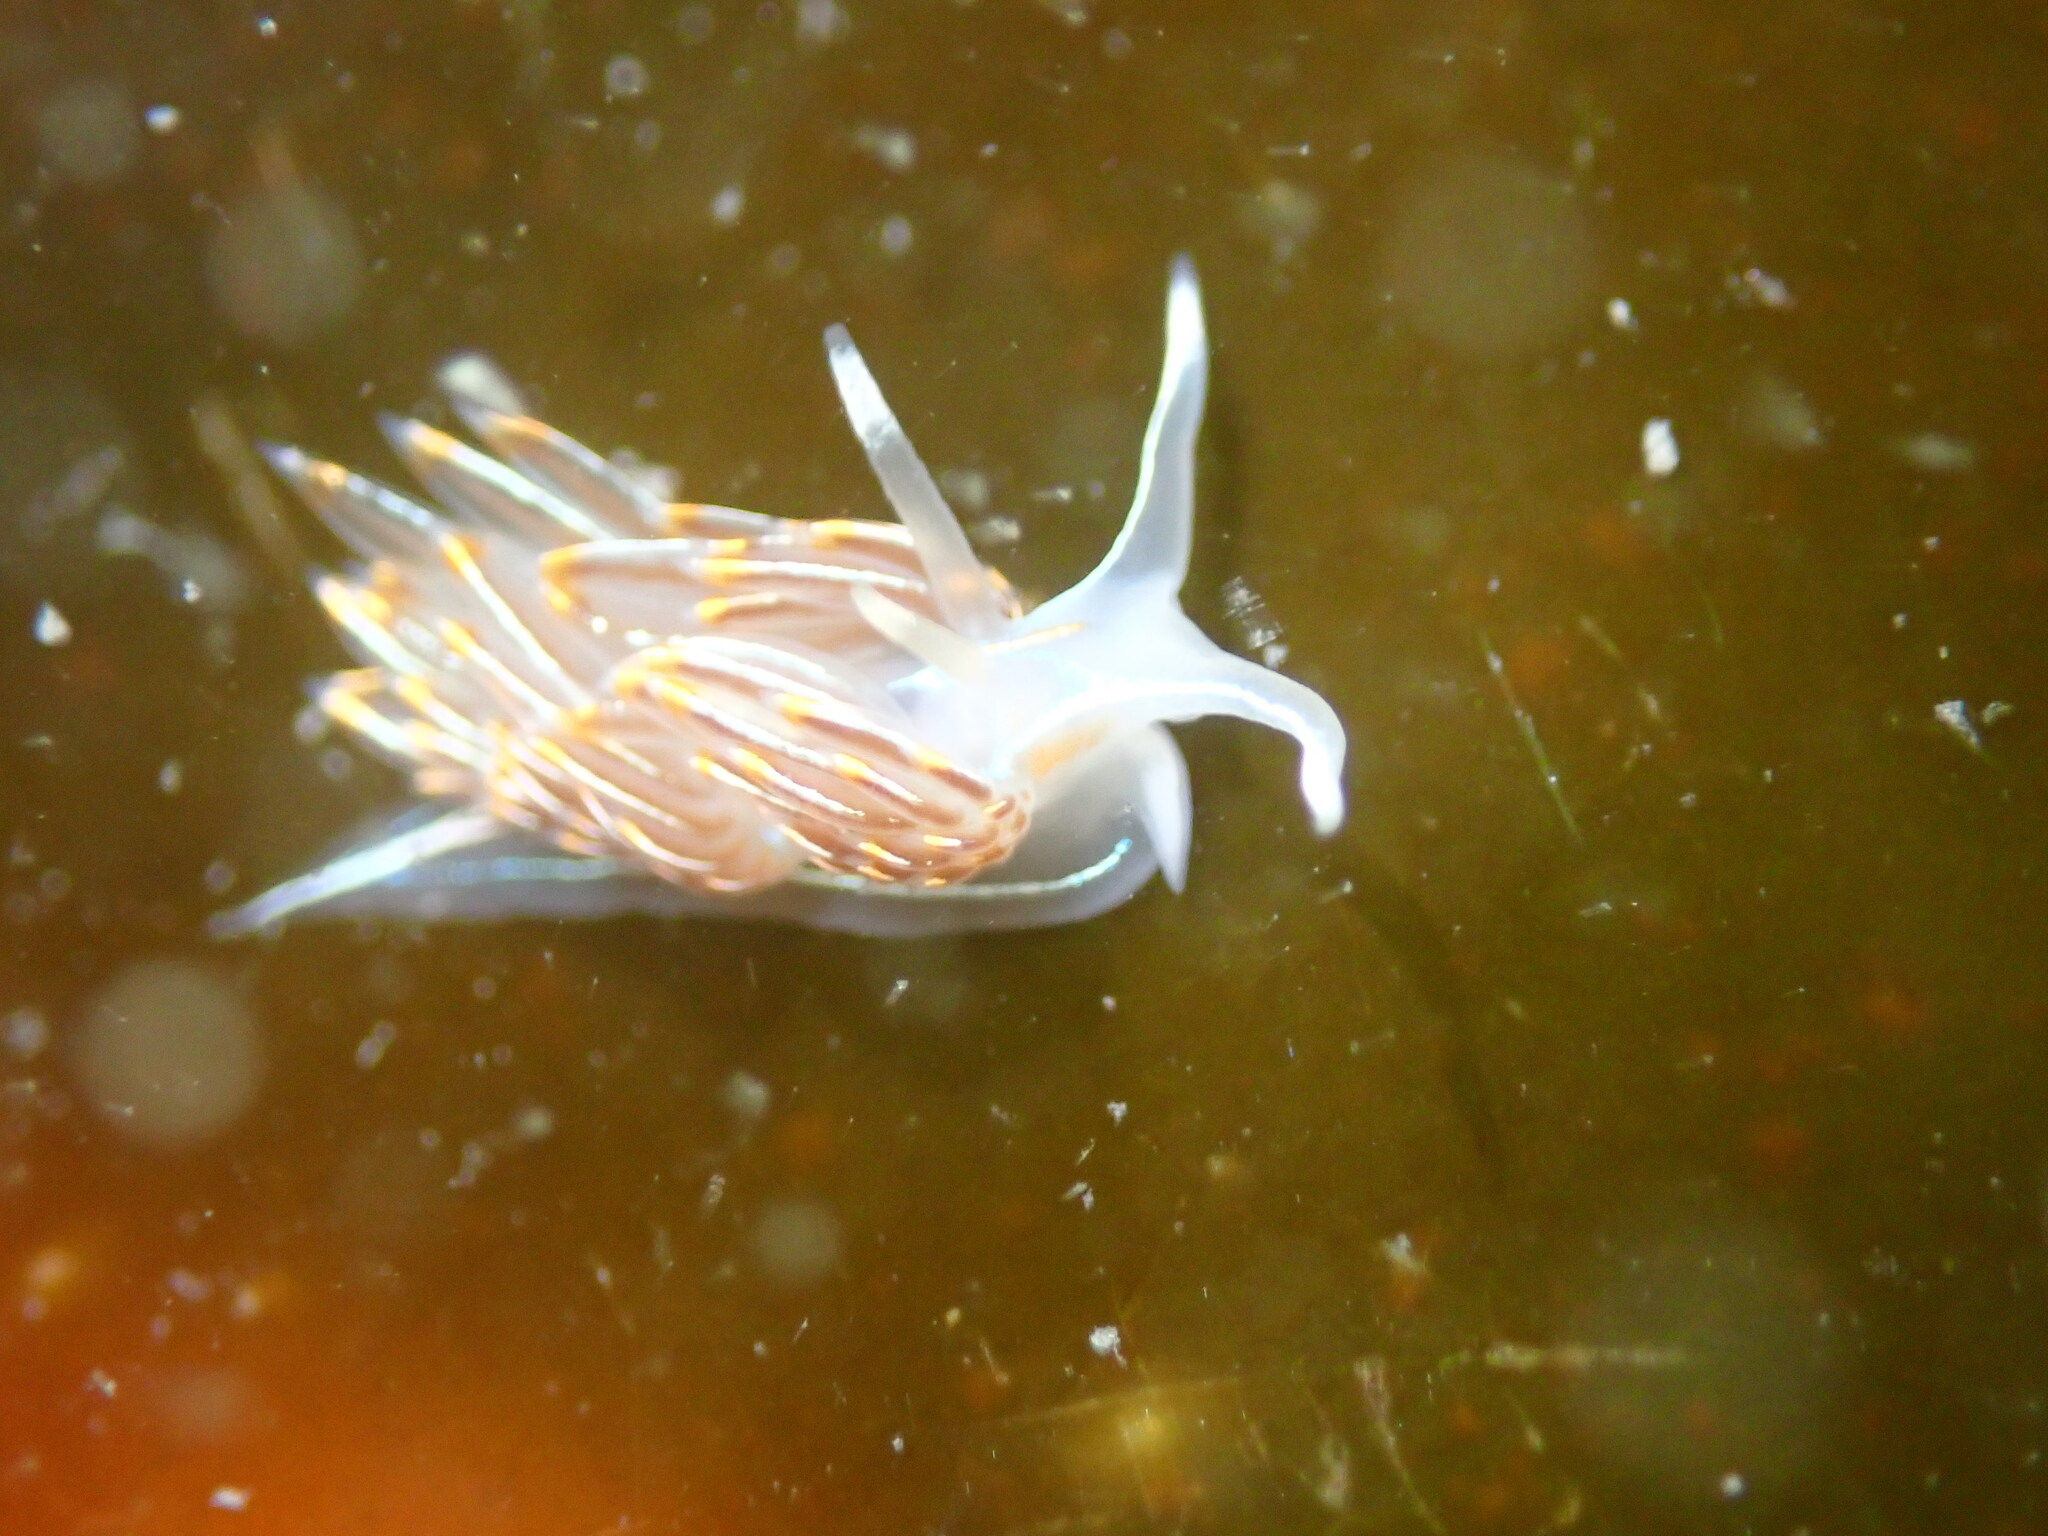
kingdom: Animalia
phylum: Mollusca
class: Gastropoda
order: Nudibranchia
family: Myrrhinidae
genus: Hermissenda
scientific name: Hermissenda crassicornis
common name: Hermissenda
